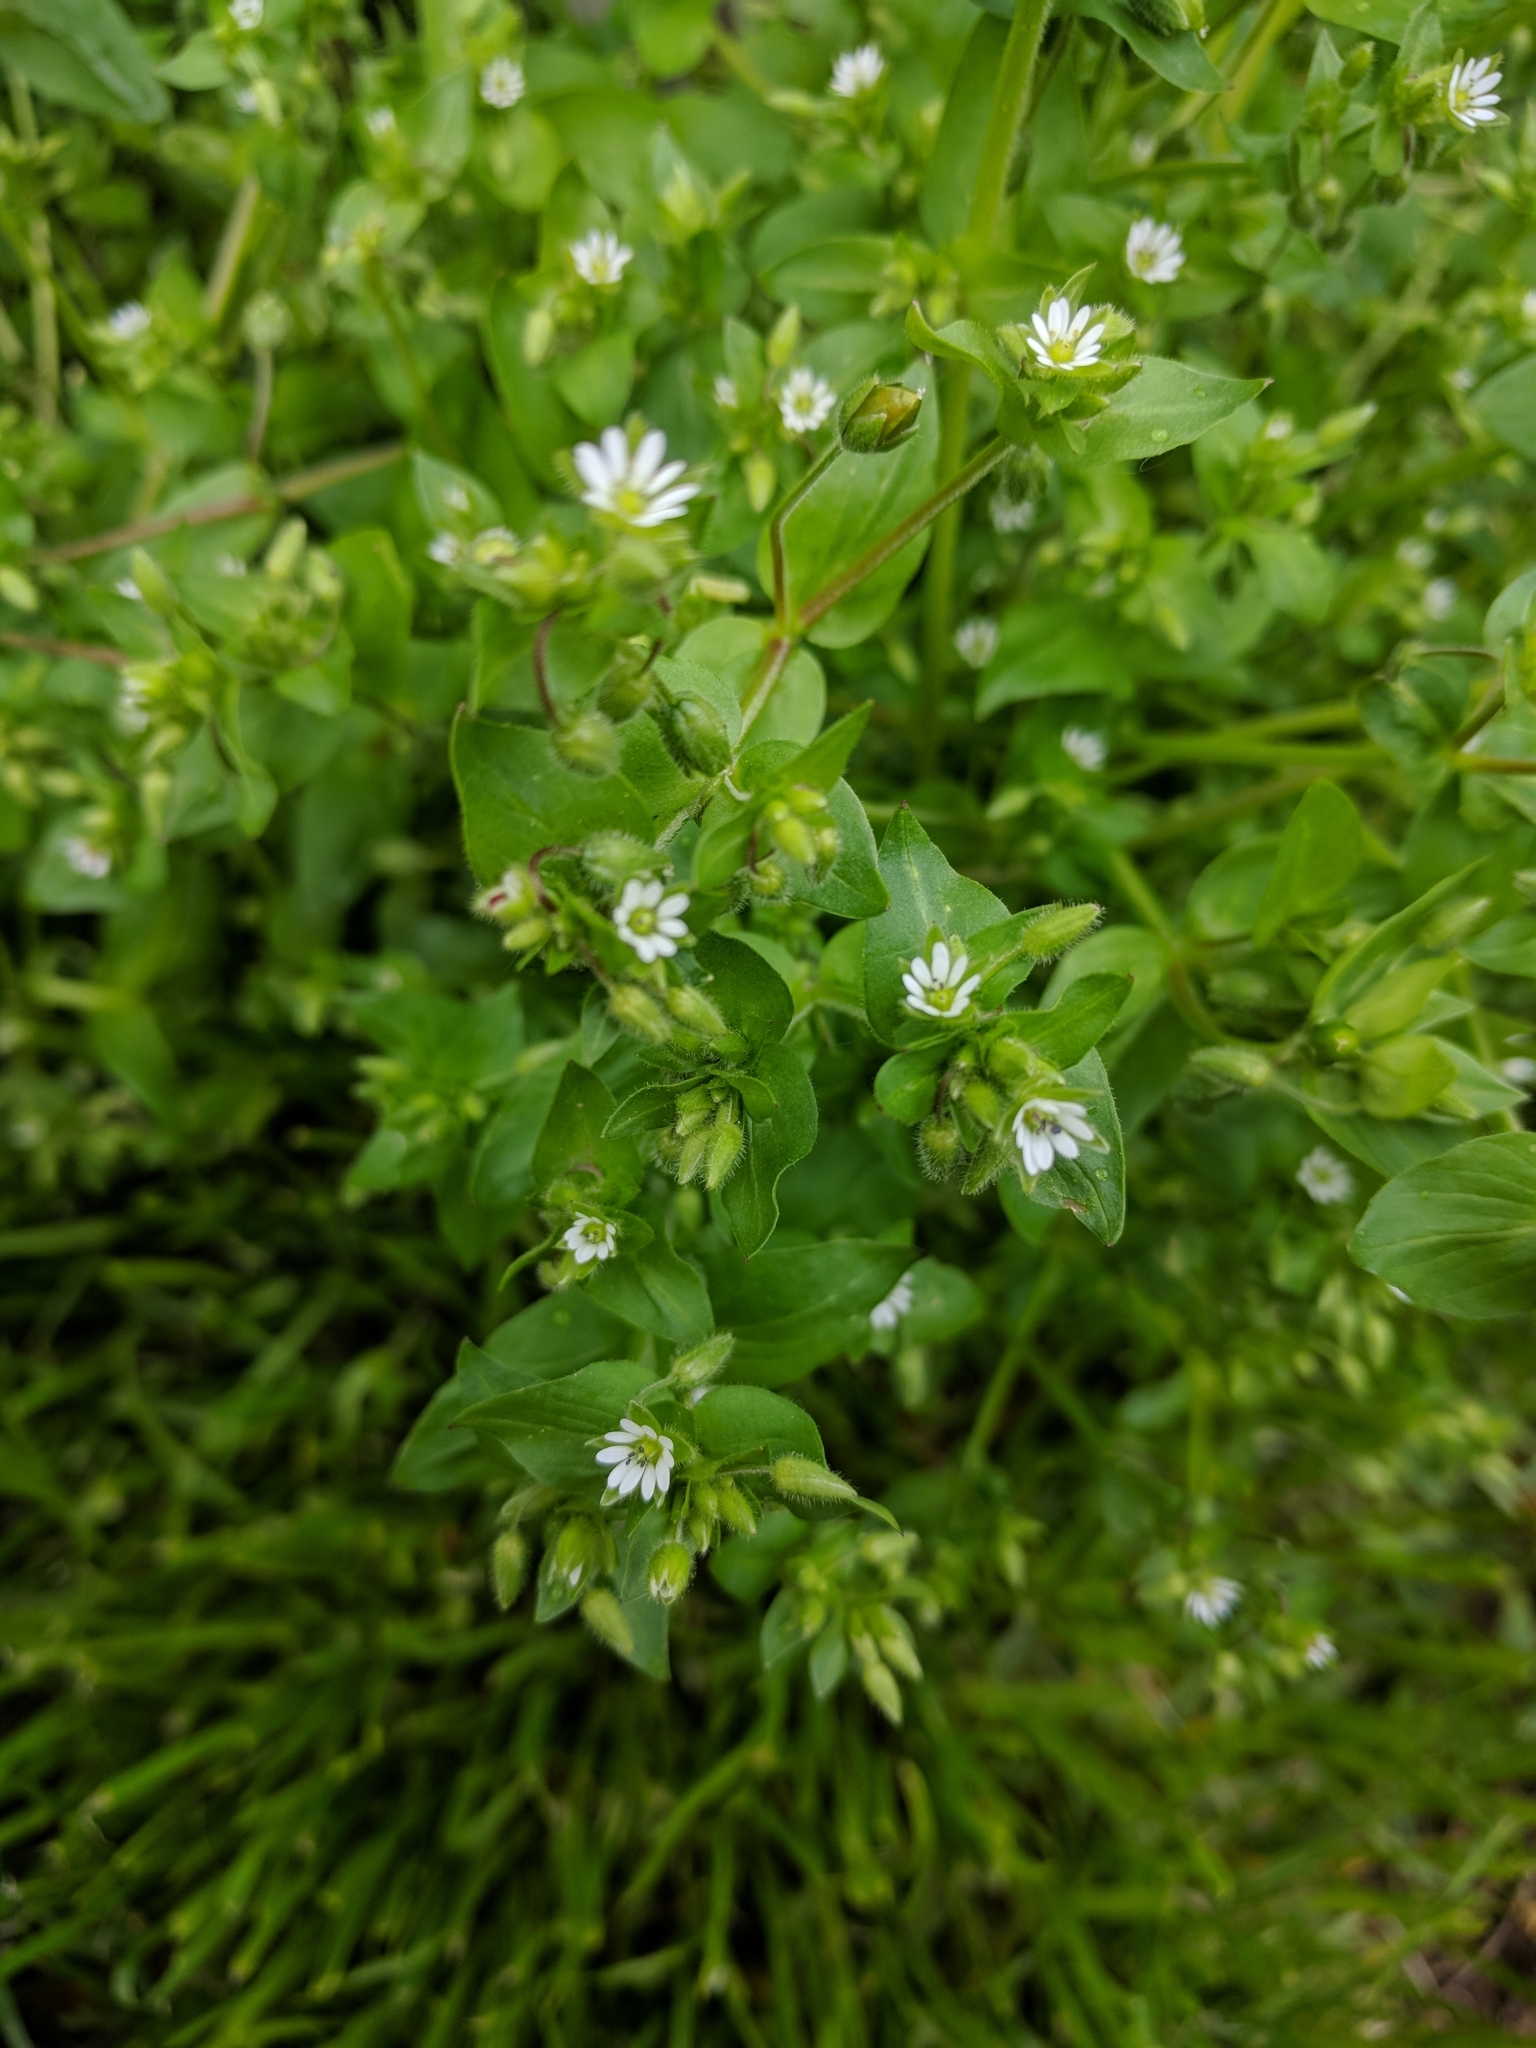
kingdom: Plantae
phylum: Tracheophyta
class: Magnoliopsida
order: Caryophyllales
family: Caryophyllaceae
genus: Stellaria
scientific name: Stellaria media
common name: Common chickweed
